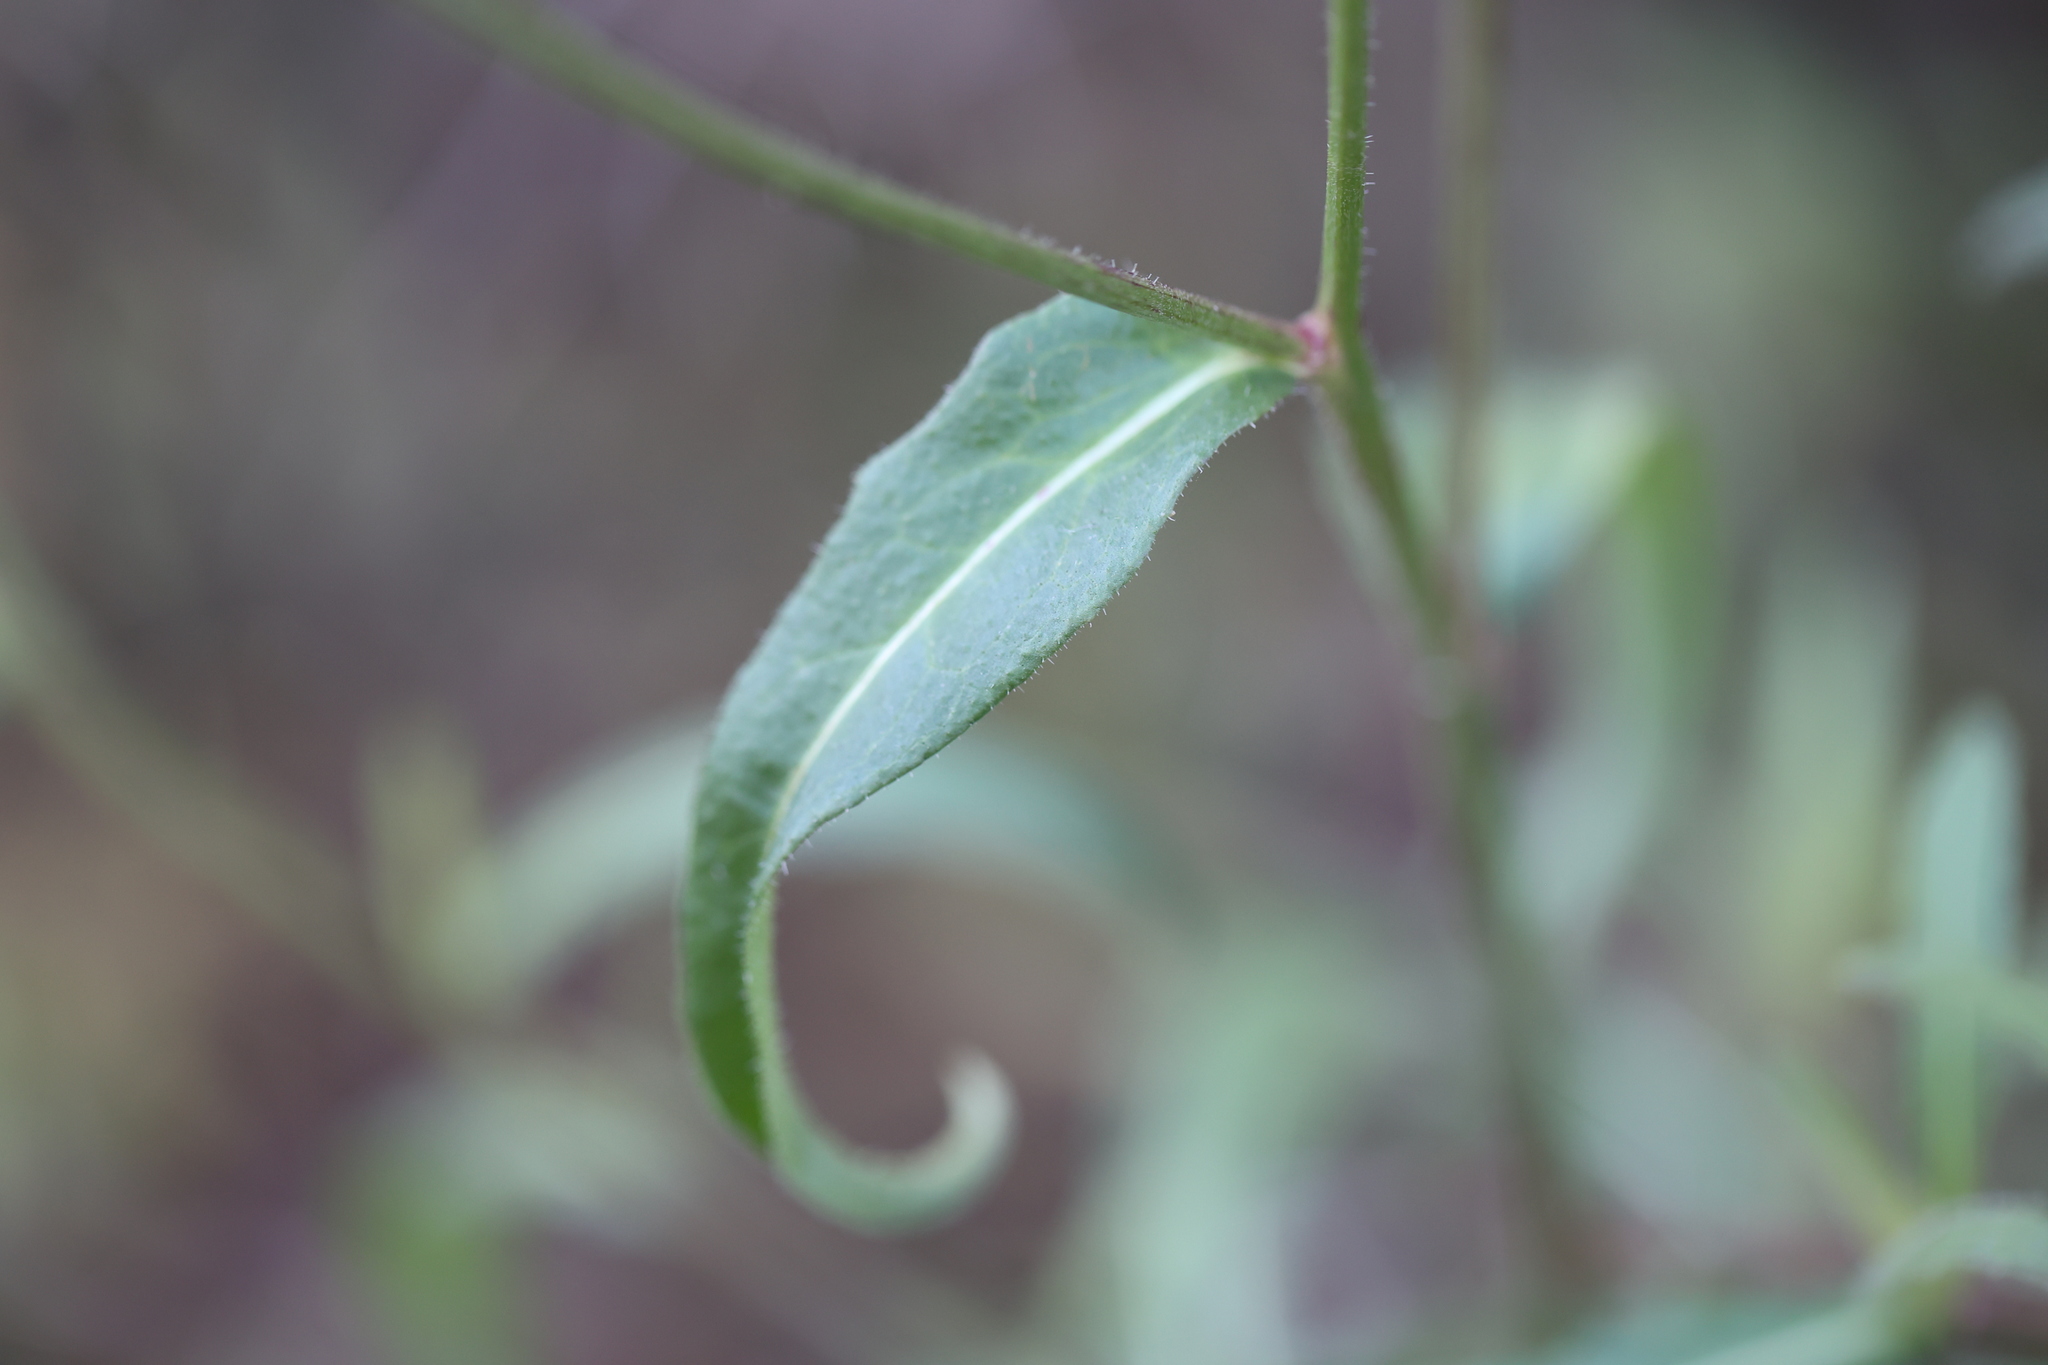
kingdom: Plantae
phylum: Tracheophyta
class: Magnoliopsida
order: Asterales
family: Asteraceae
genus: Picris
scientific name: Picris hieracioides
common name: Hawkweed oxtongue
